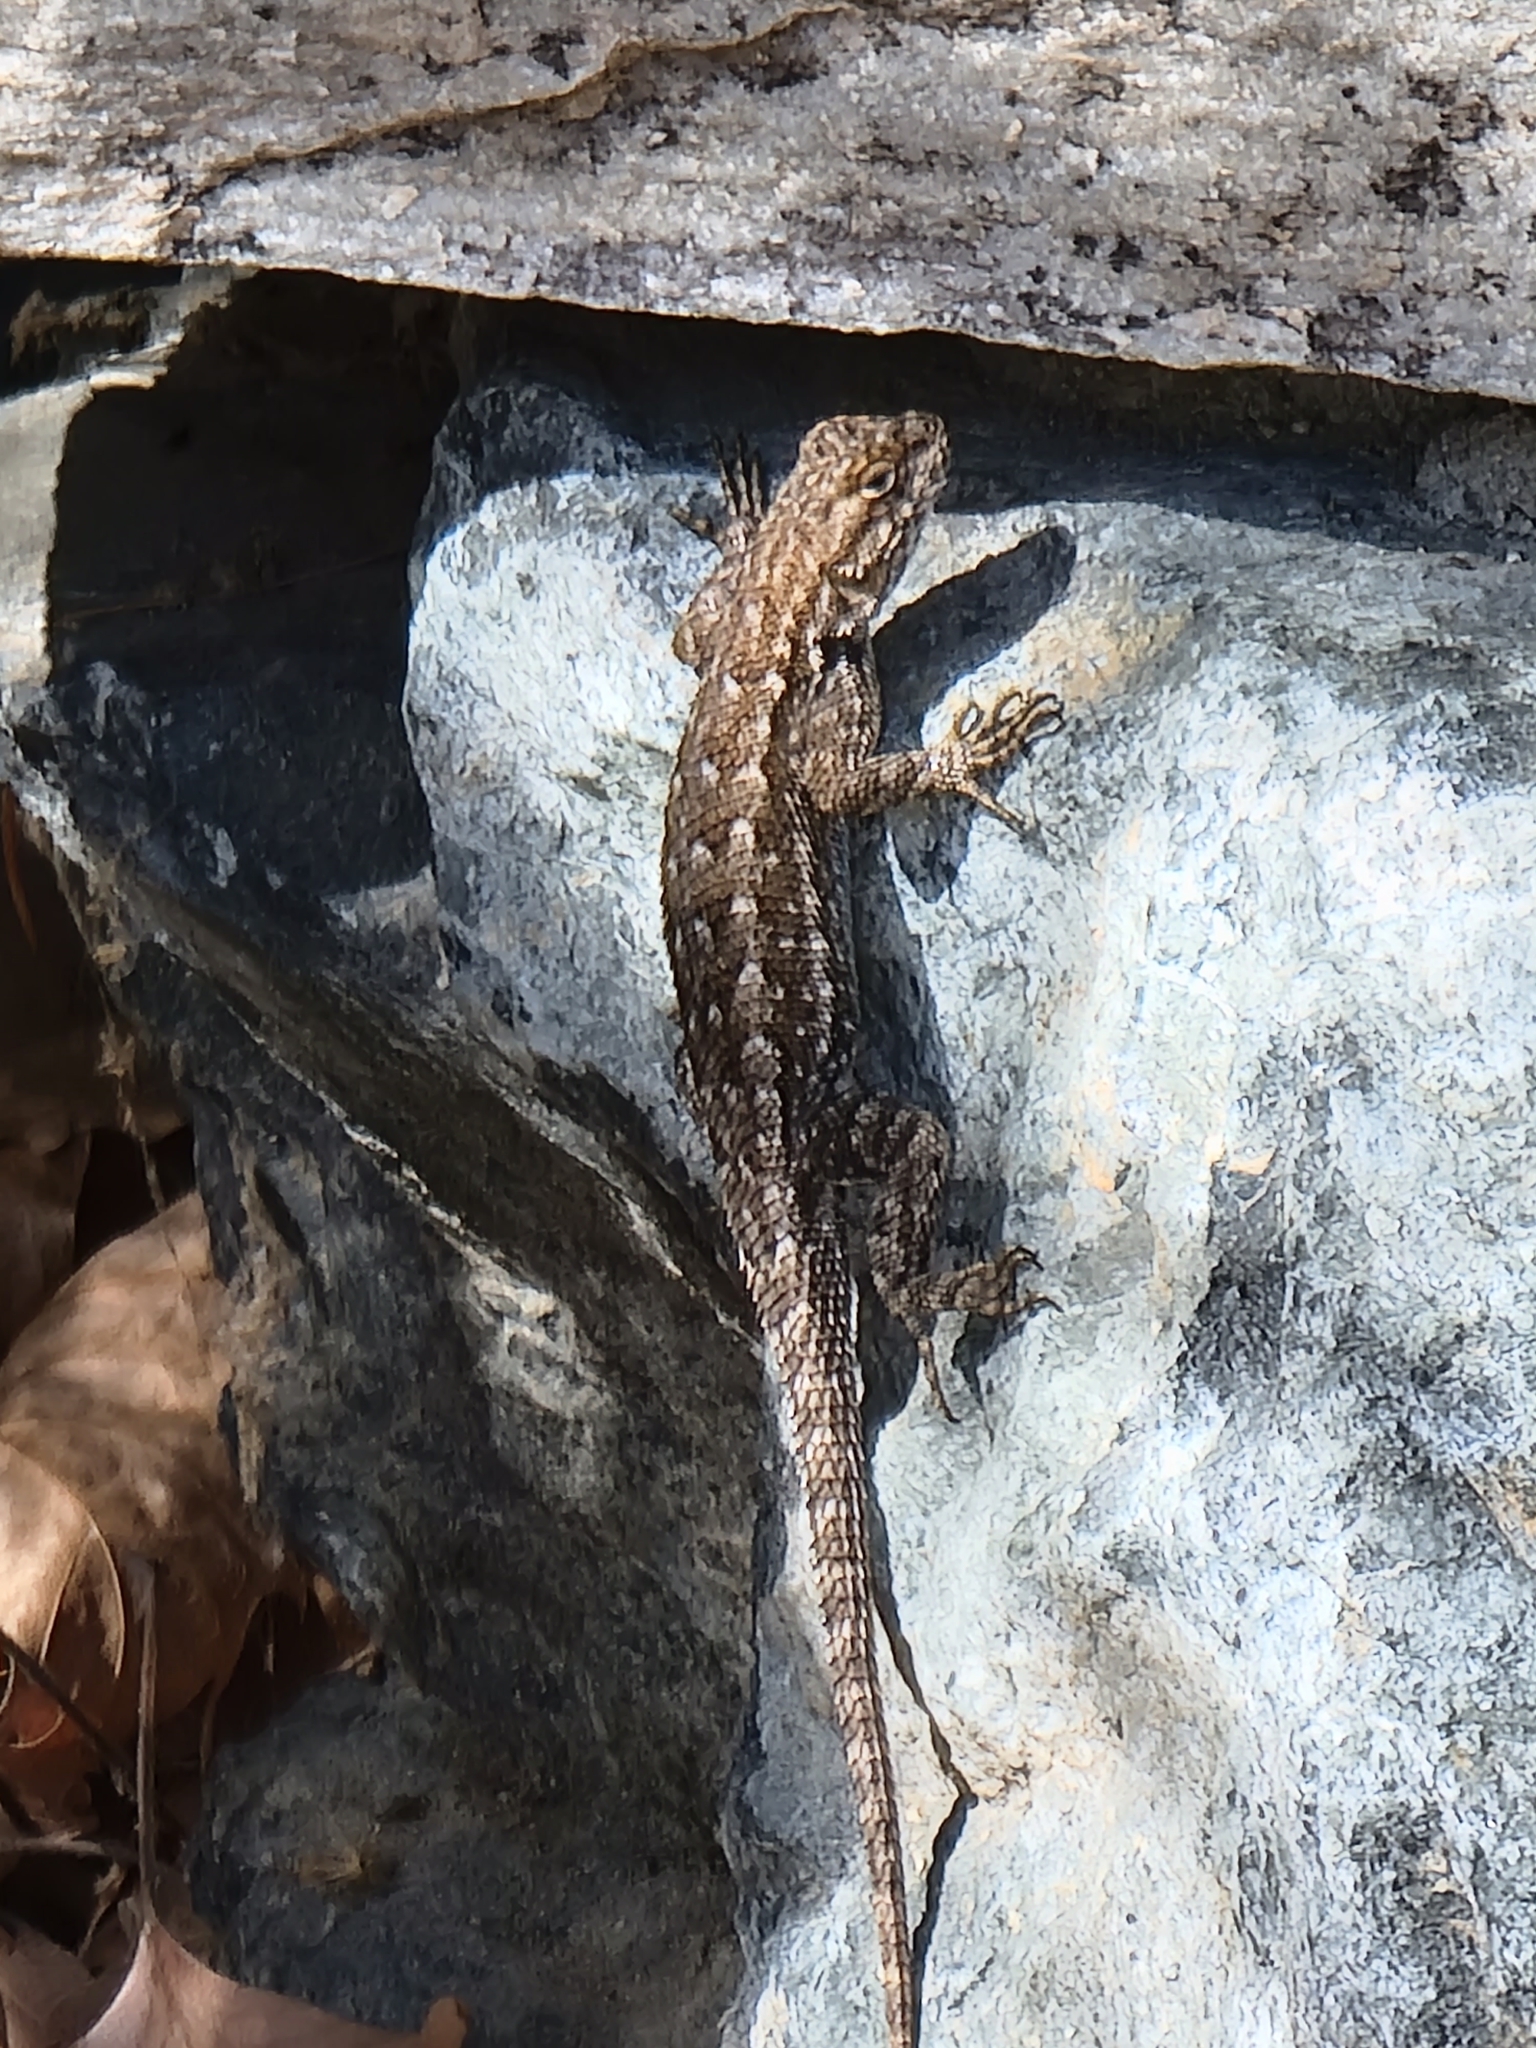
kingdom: Animalia
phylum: Chordata
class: Squamata
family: Phrynosomatidae
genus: Sceloporus
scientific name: Sceloporus occidentalis
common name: Western fence lizard
